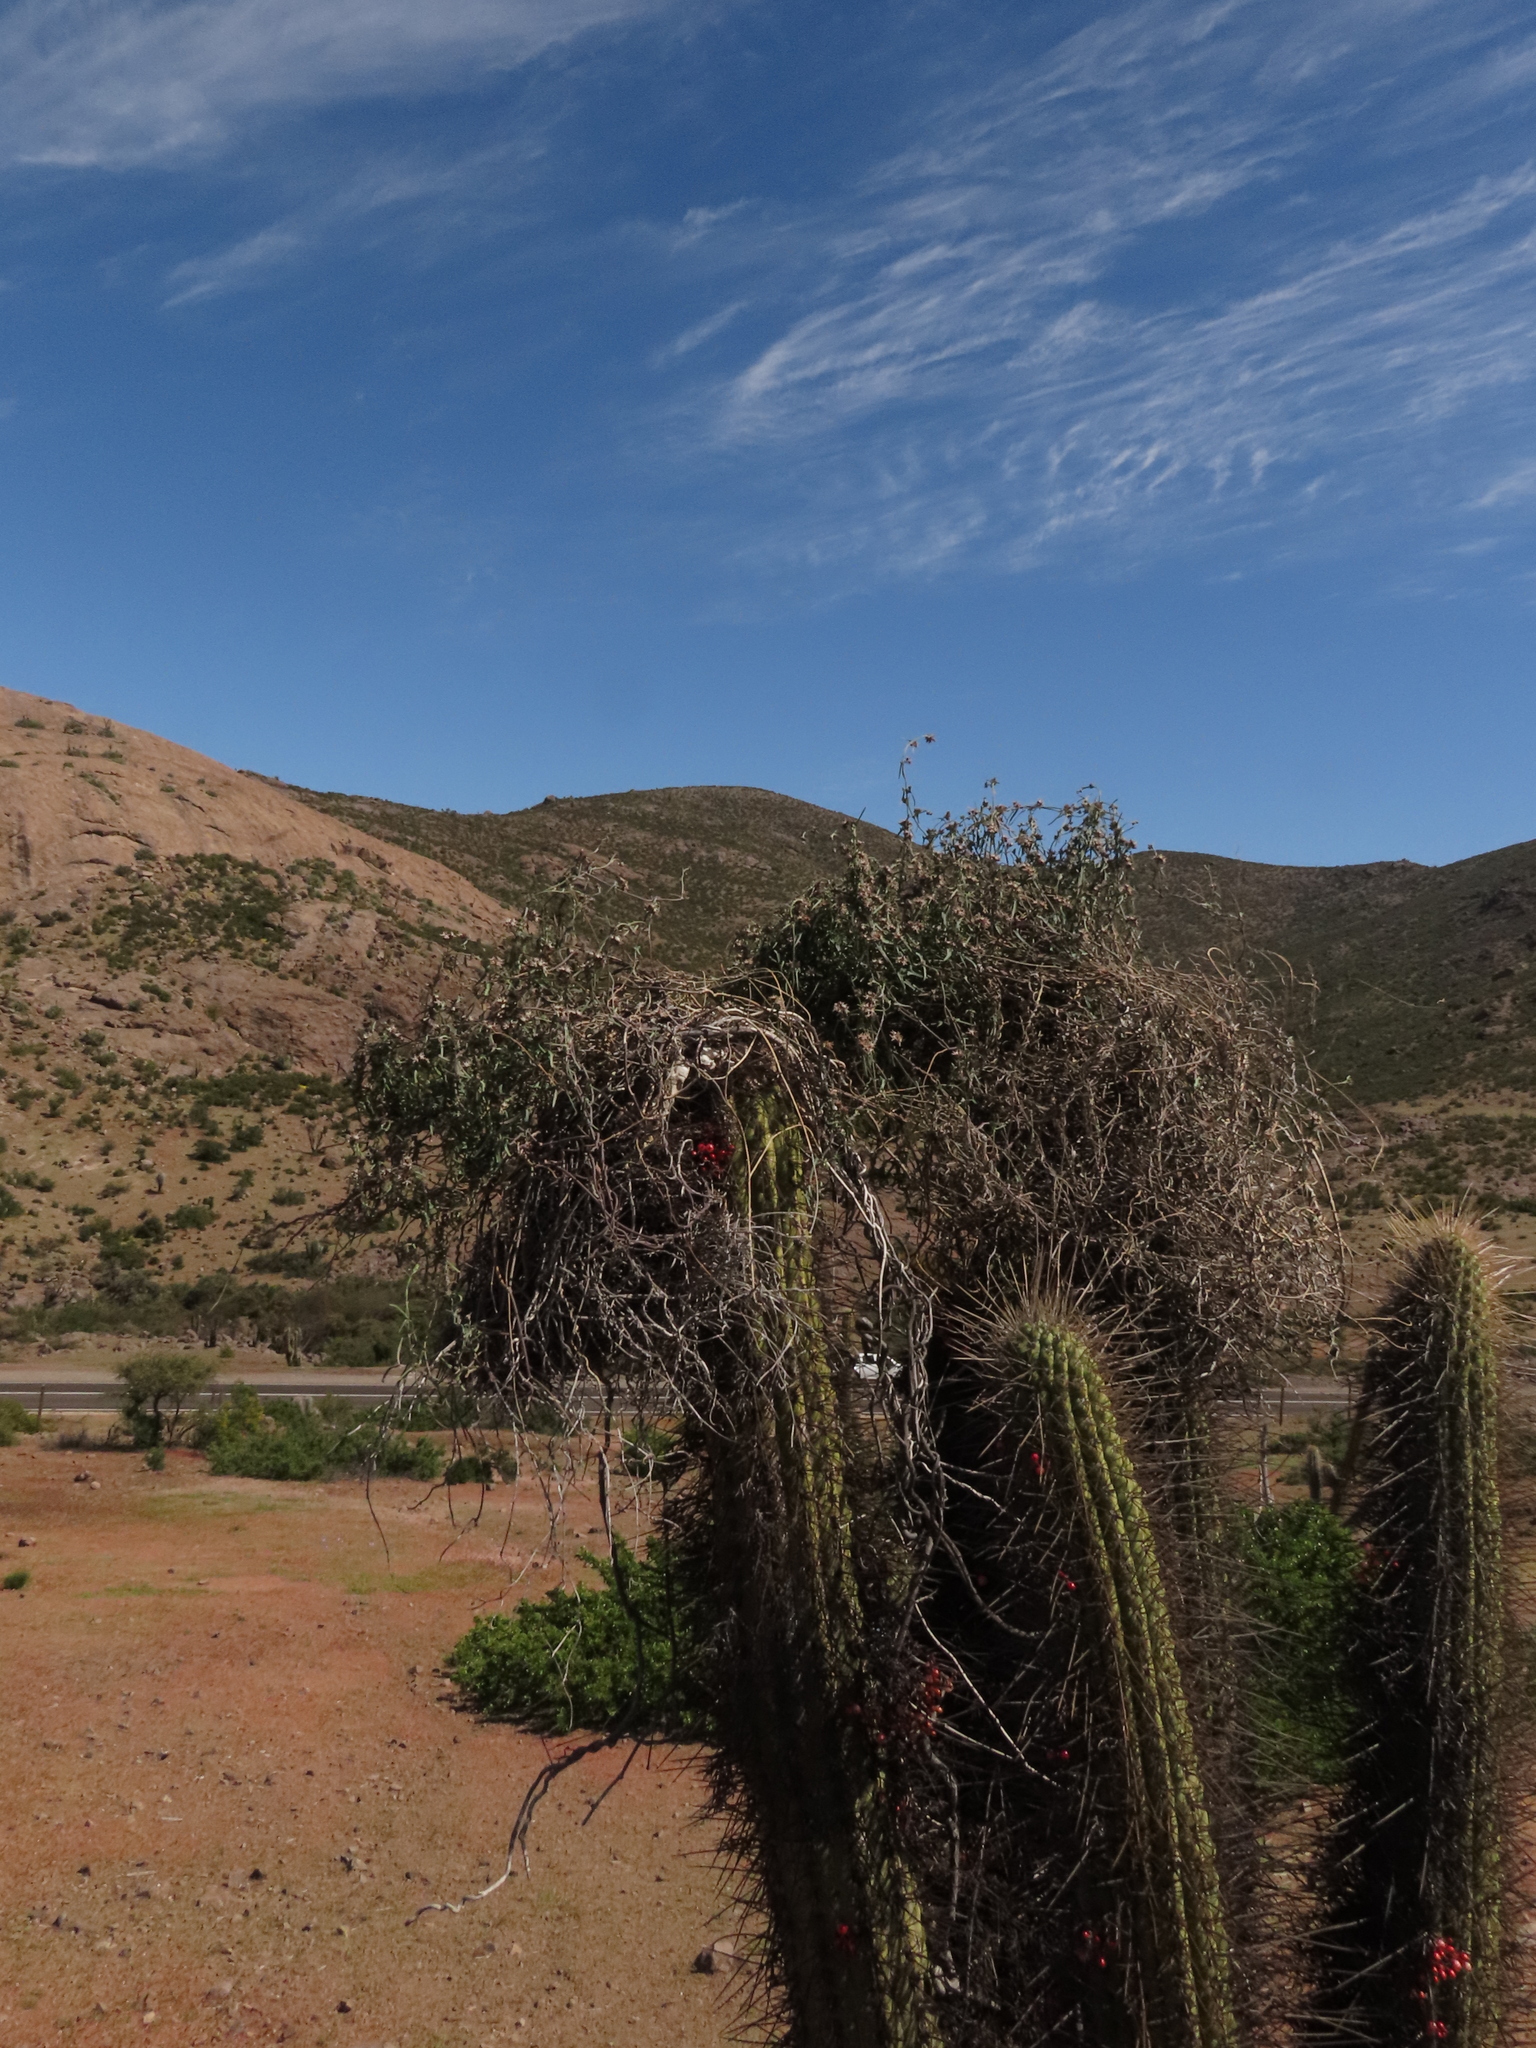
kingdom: Plantae
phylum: Tracheophyta
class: Magnoliopsida
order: Gentianales
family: Apocynaceae
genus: Tweedia
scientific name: Tweedia birostrata
